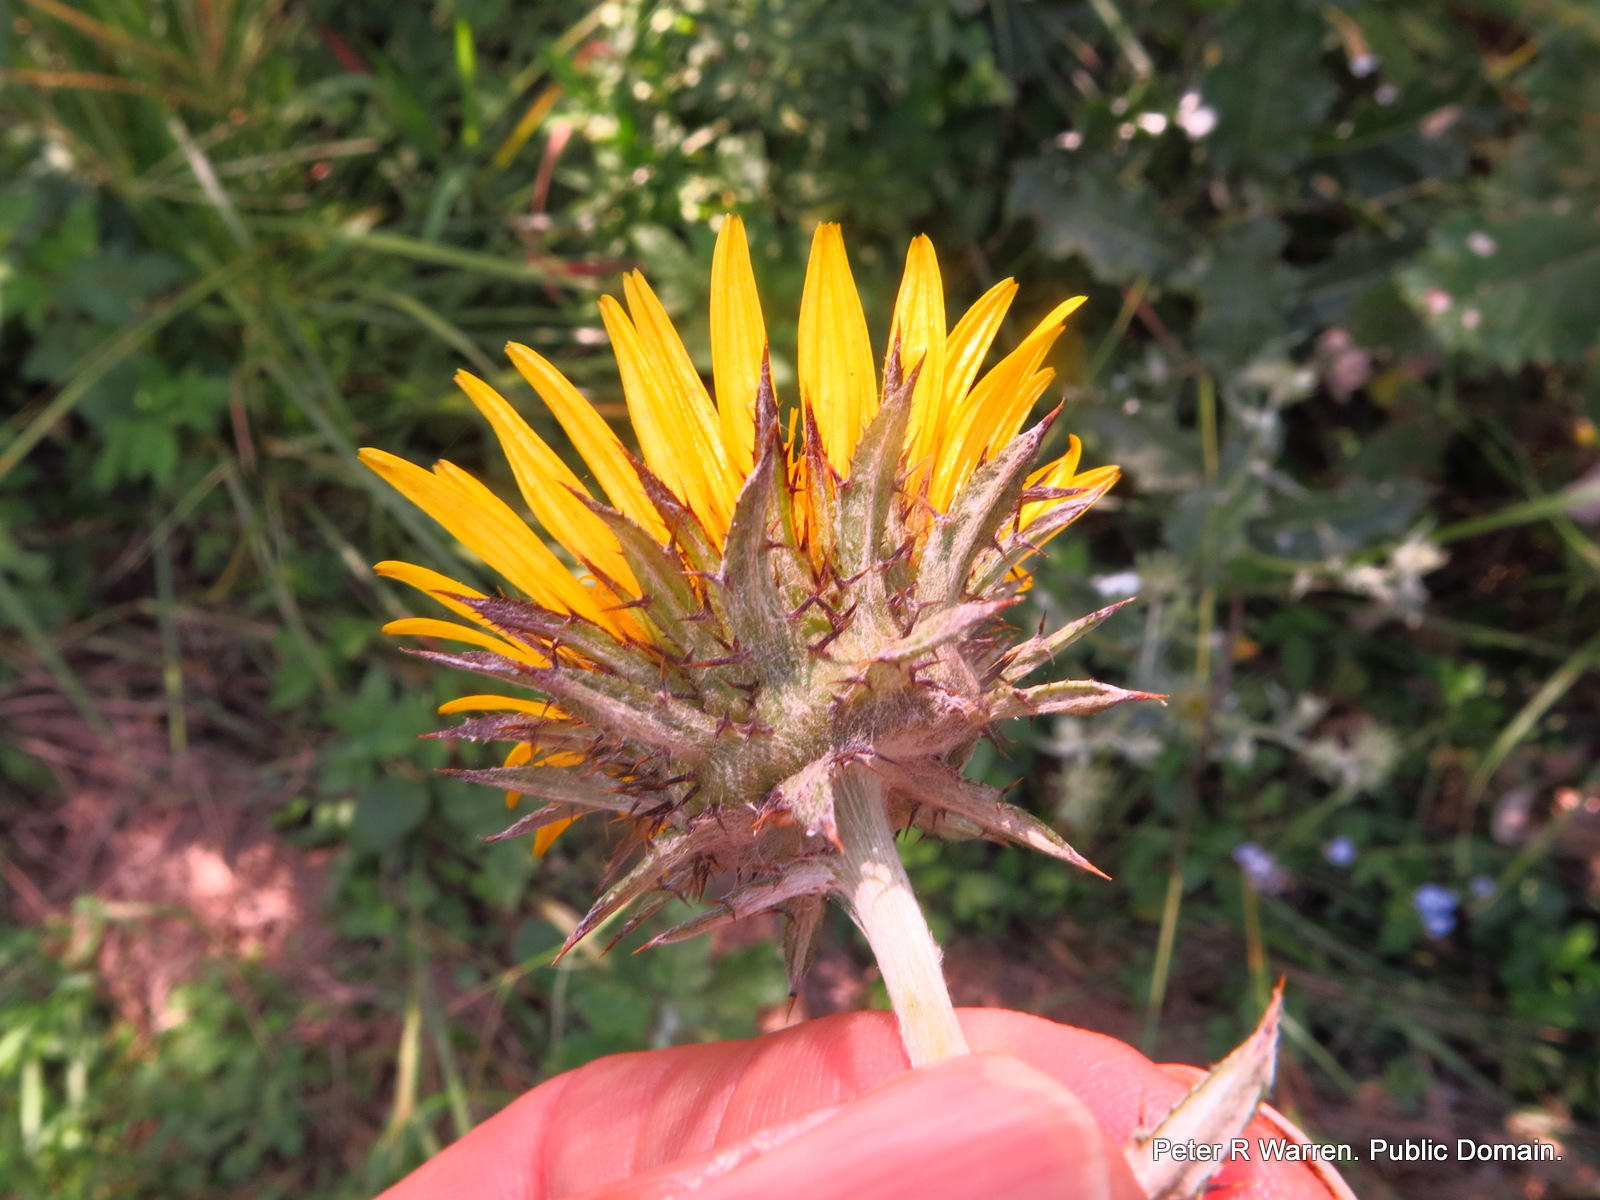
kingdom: Plantae
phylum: Tracheophyta
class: Magnoliopsida
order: Asterales
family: Asteraceae
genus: Berkheya
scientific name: Berkheya maritima
